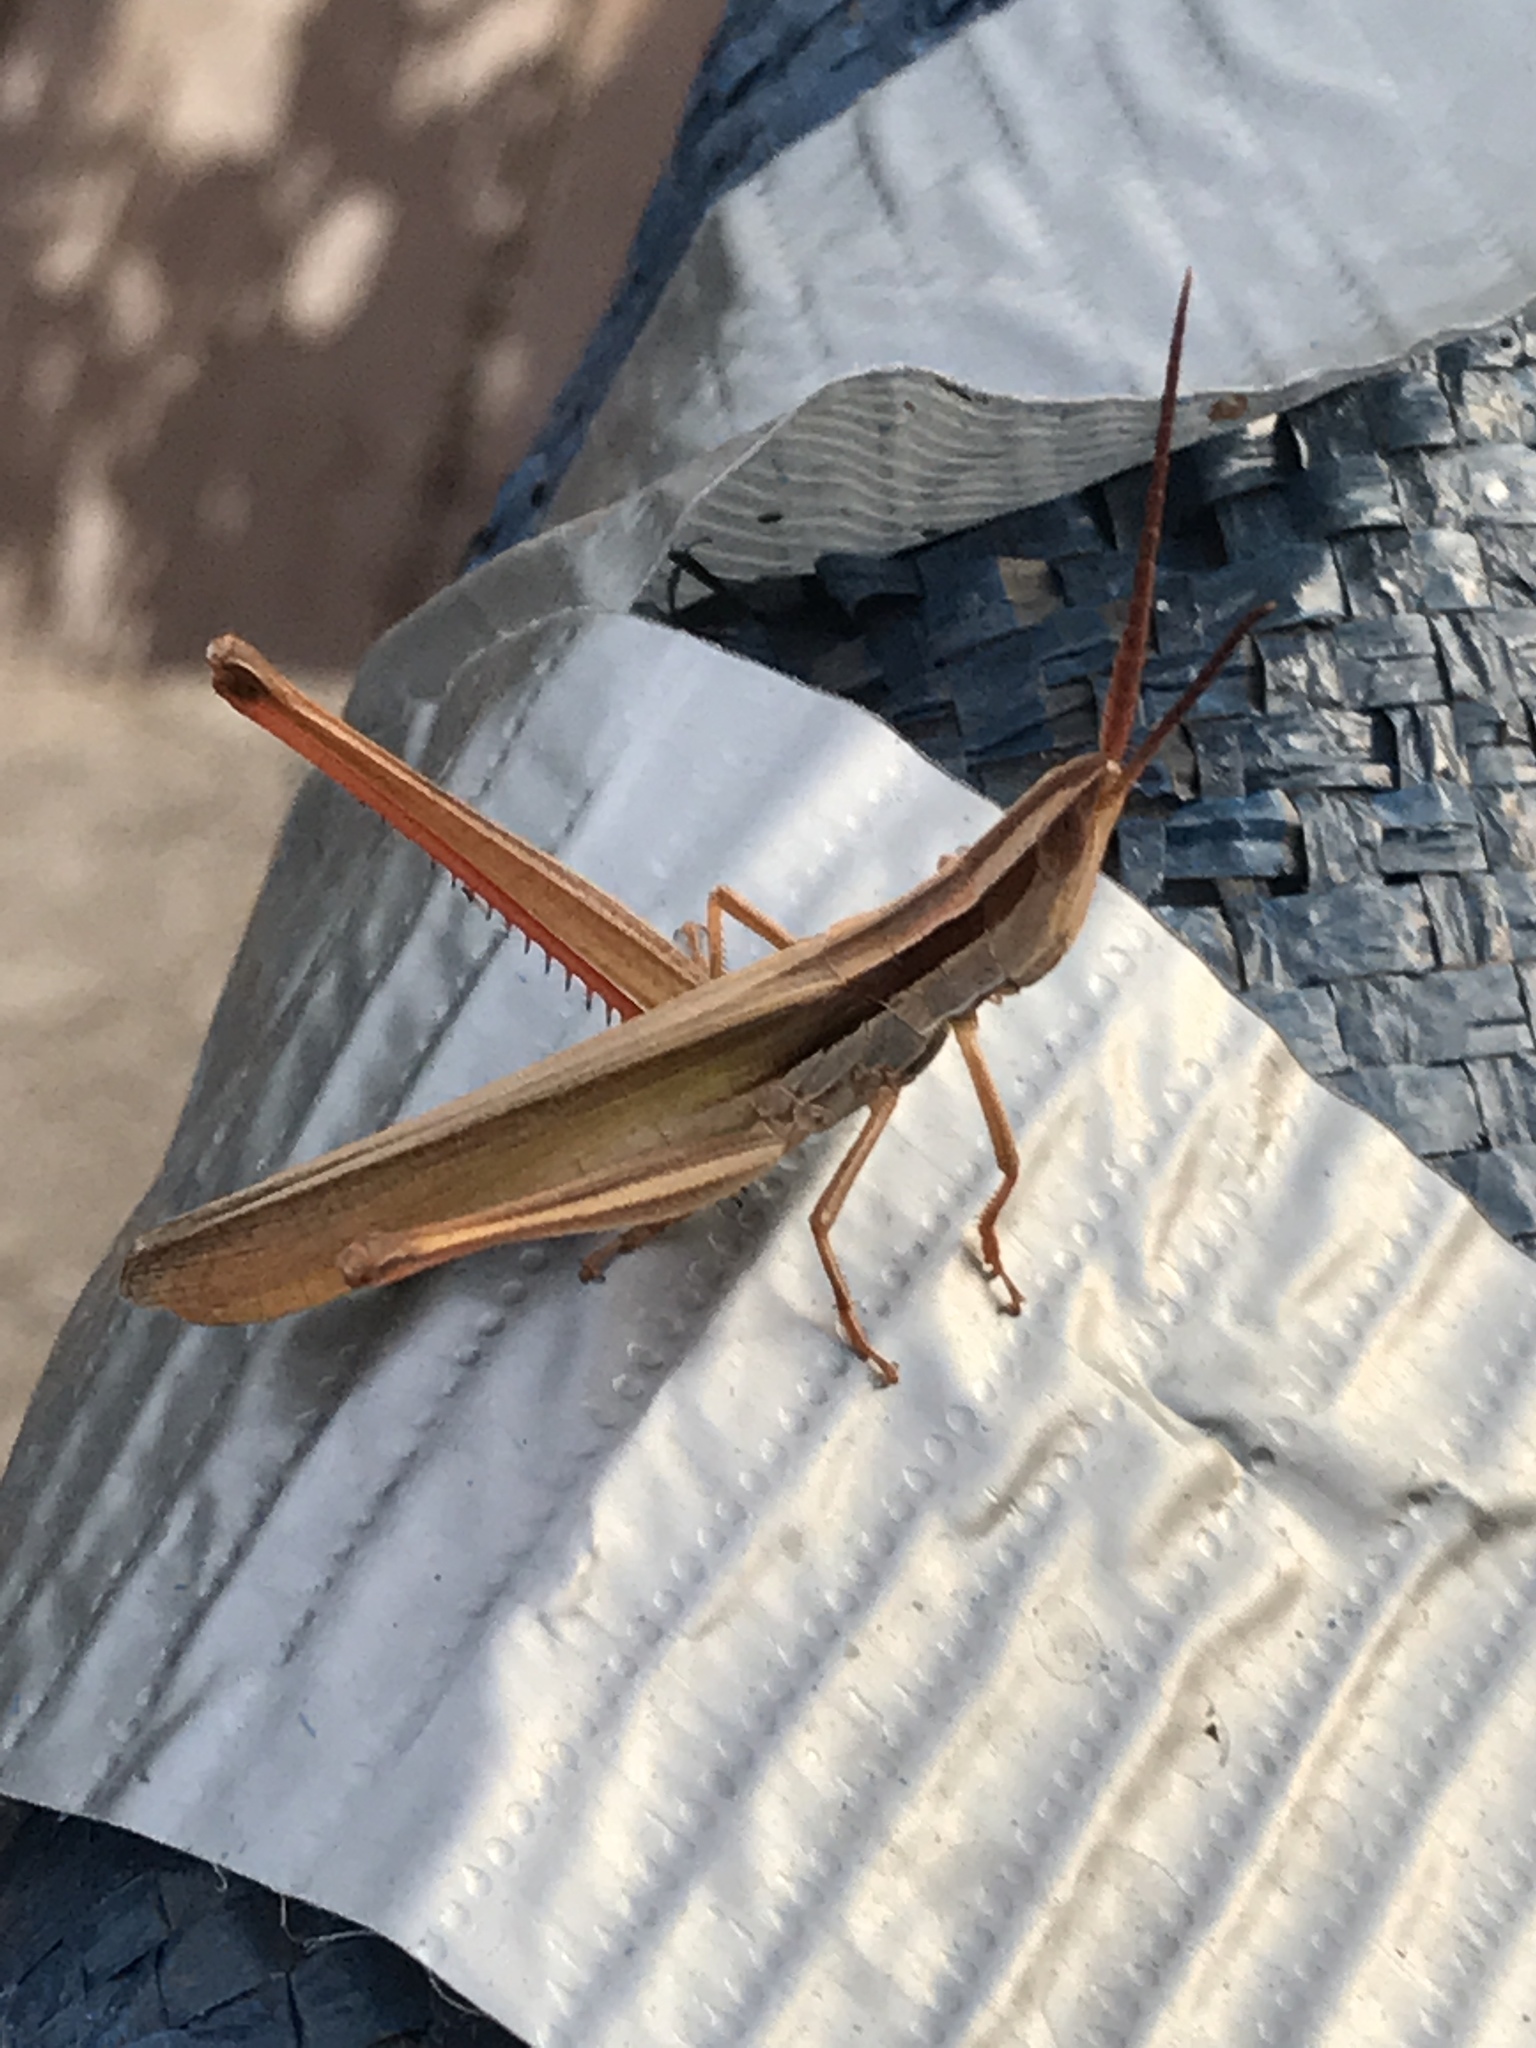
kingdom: Animalia
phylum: Arthropoda
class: Insecta
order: Orthoptera
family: Acrididae
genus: Mermiria
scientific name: Mermiria picta
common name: Lively mermiria grasshopper
